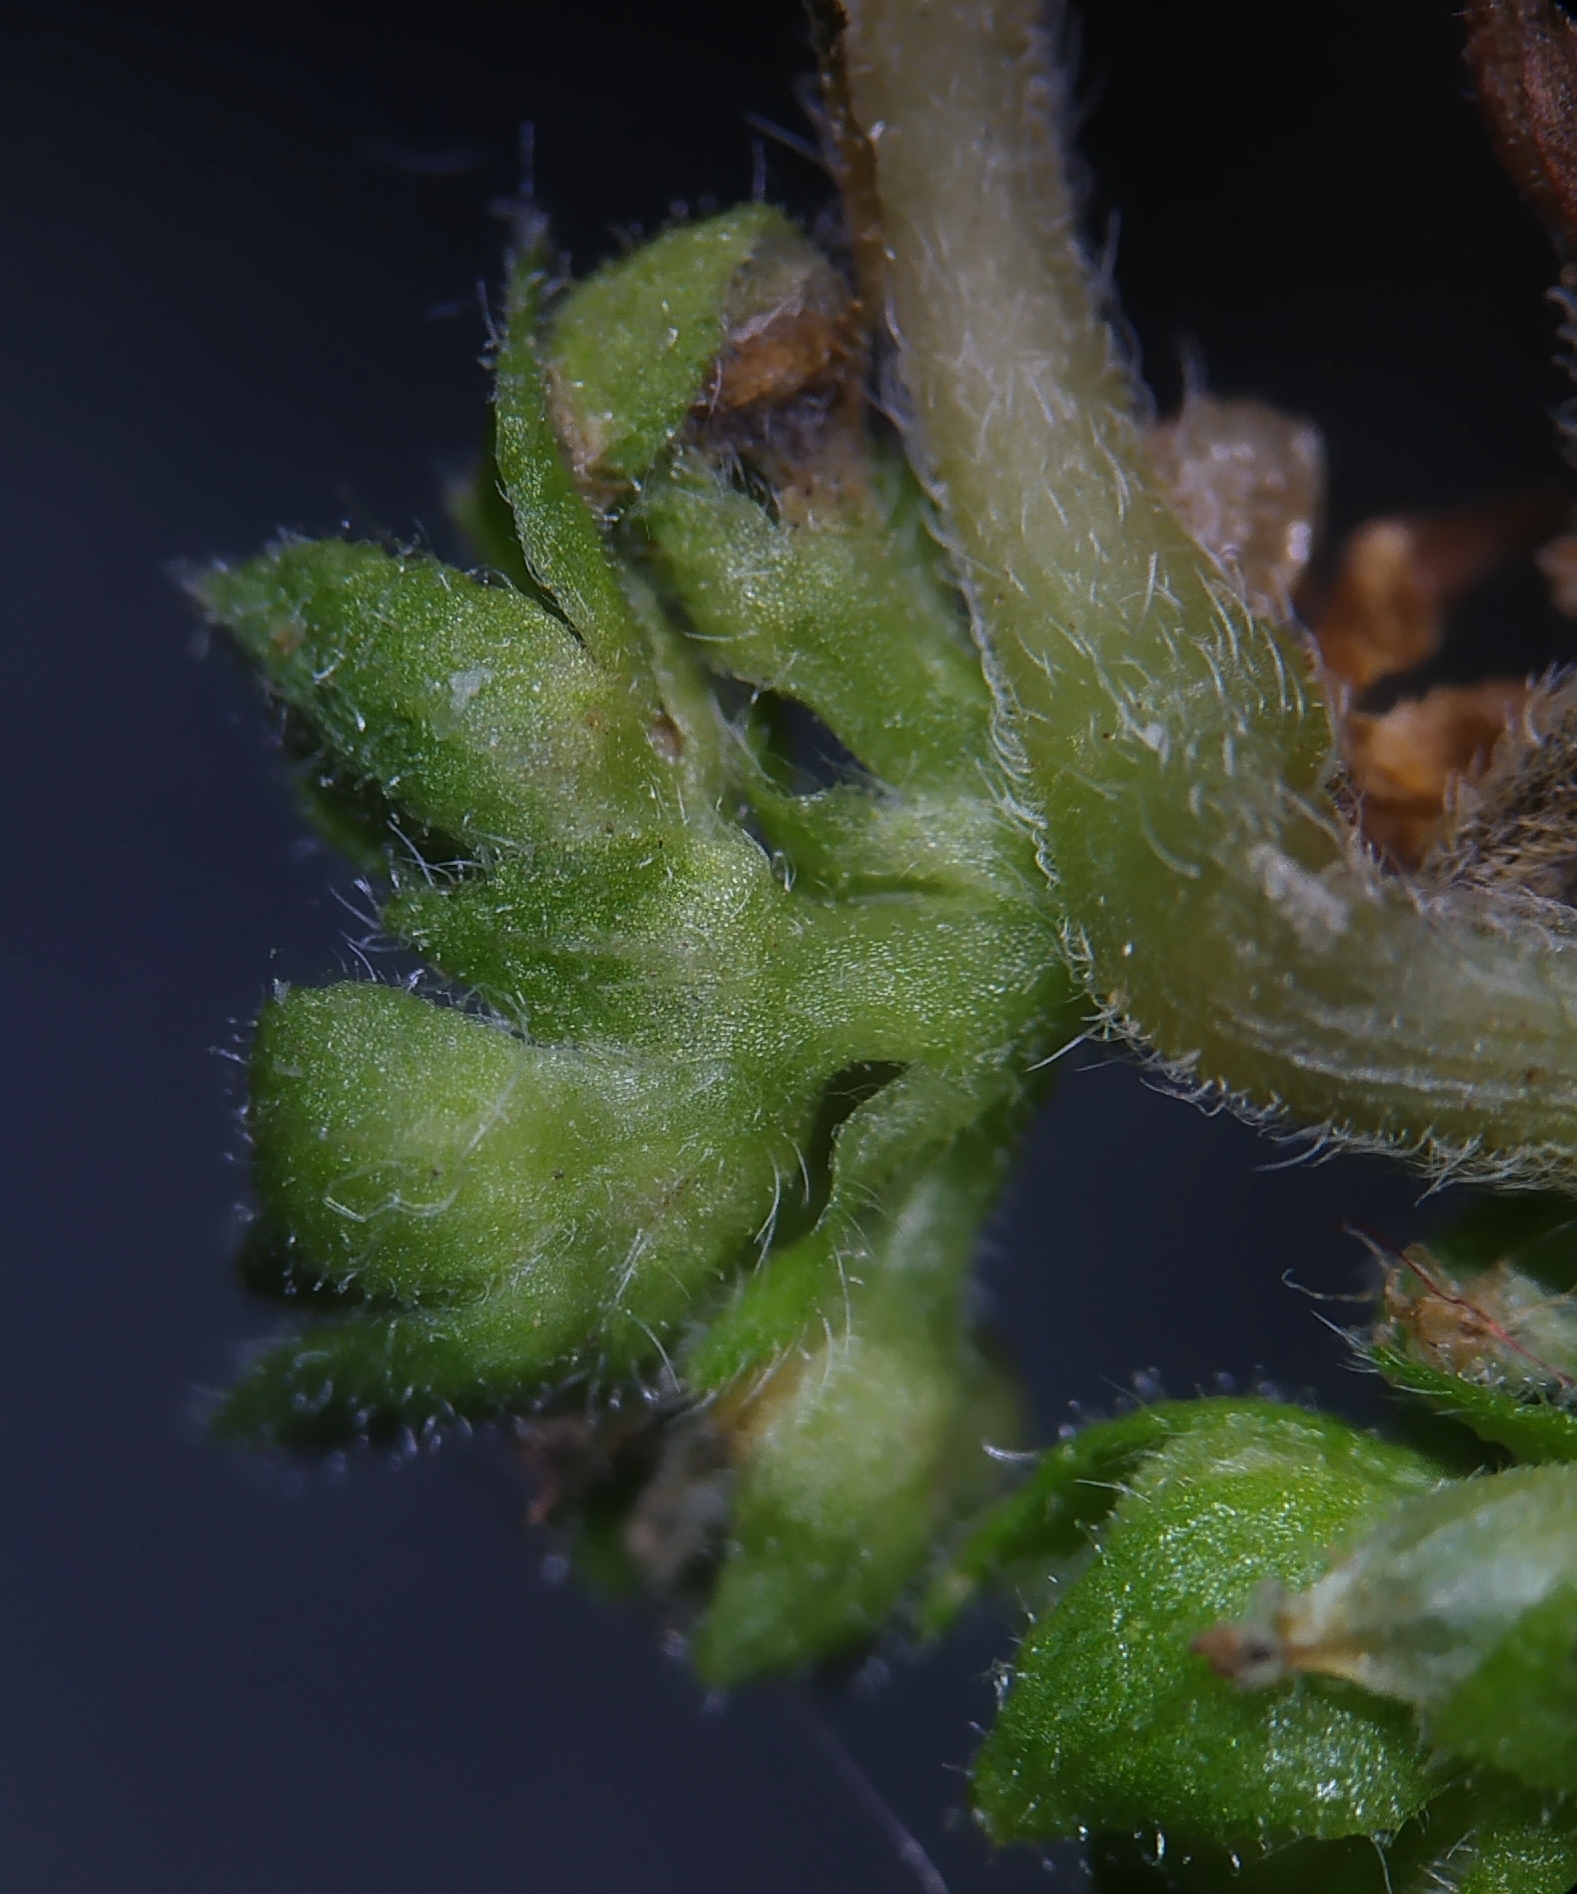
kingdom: Plantae
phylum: Tracheophyta
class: Magnoliopsida
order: Rosales
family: Urticaceae
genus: Parietaria
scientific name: Parietaria judaica
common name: Pellitory-of-the-wall
